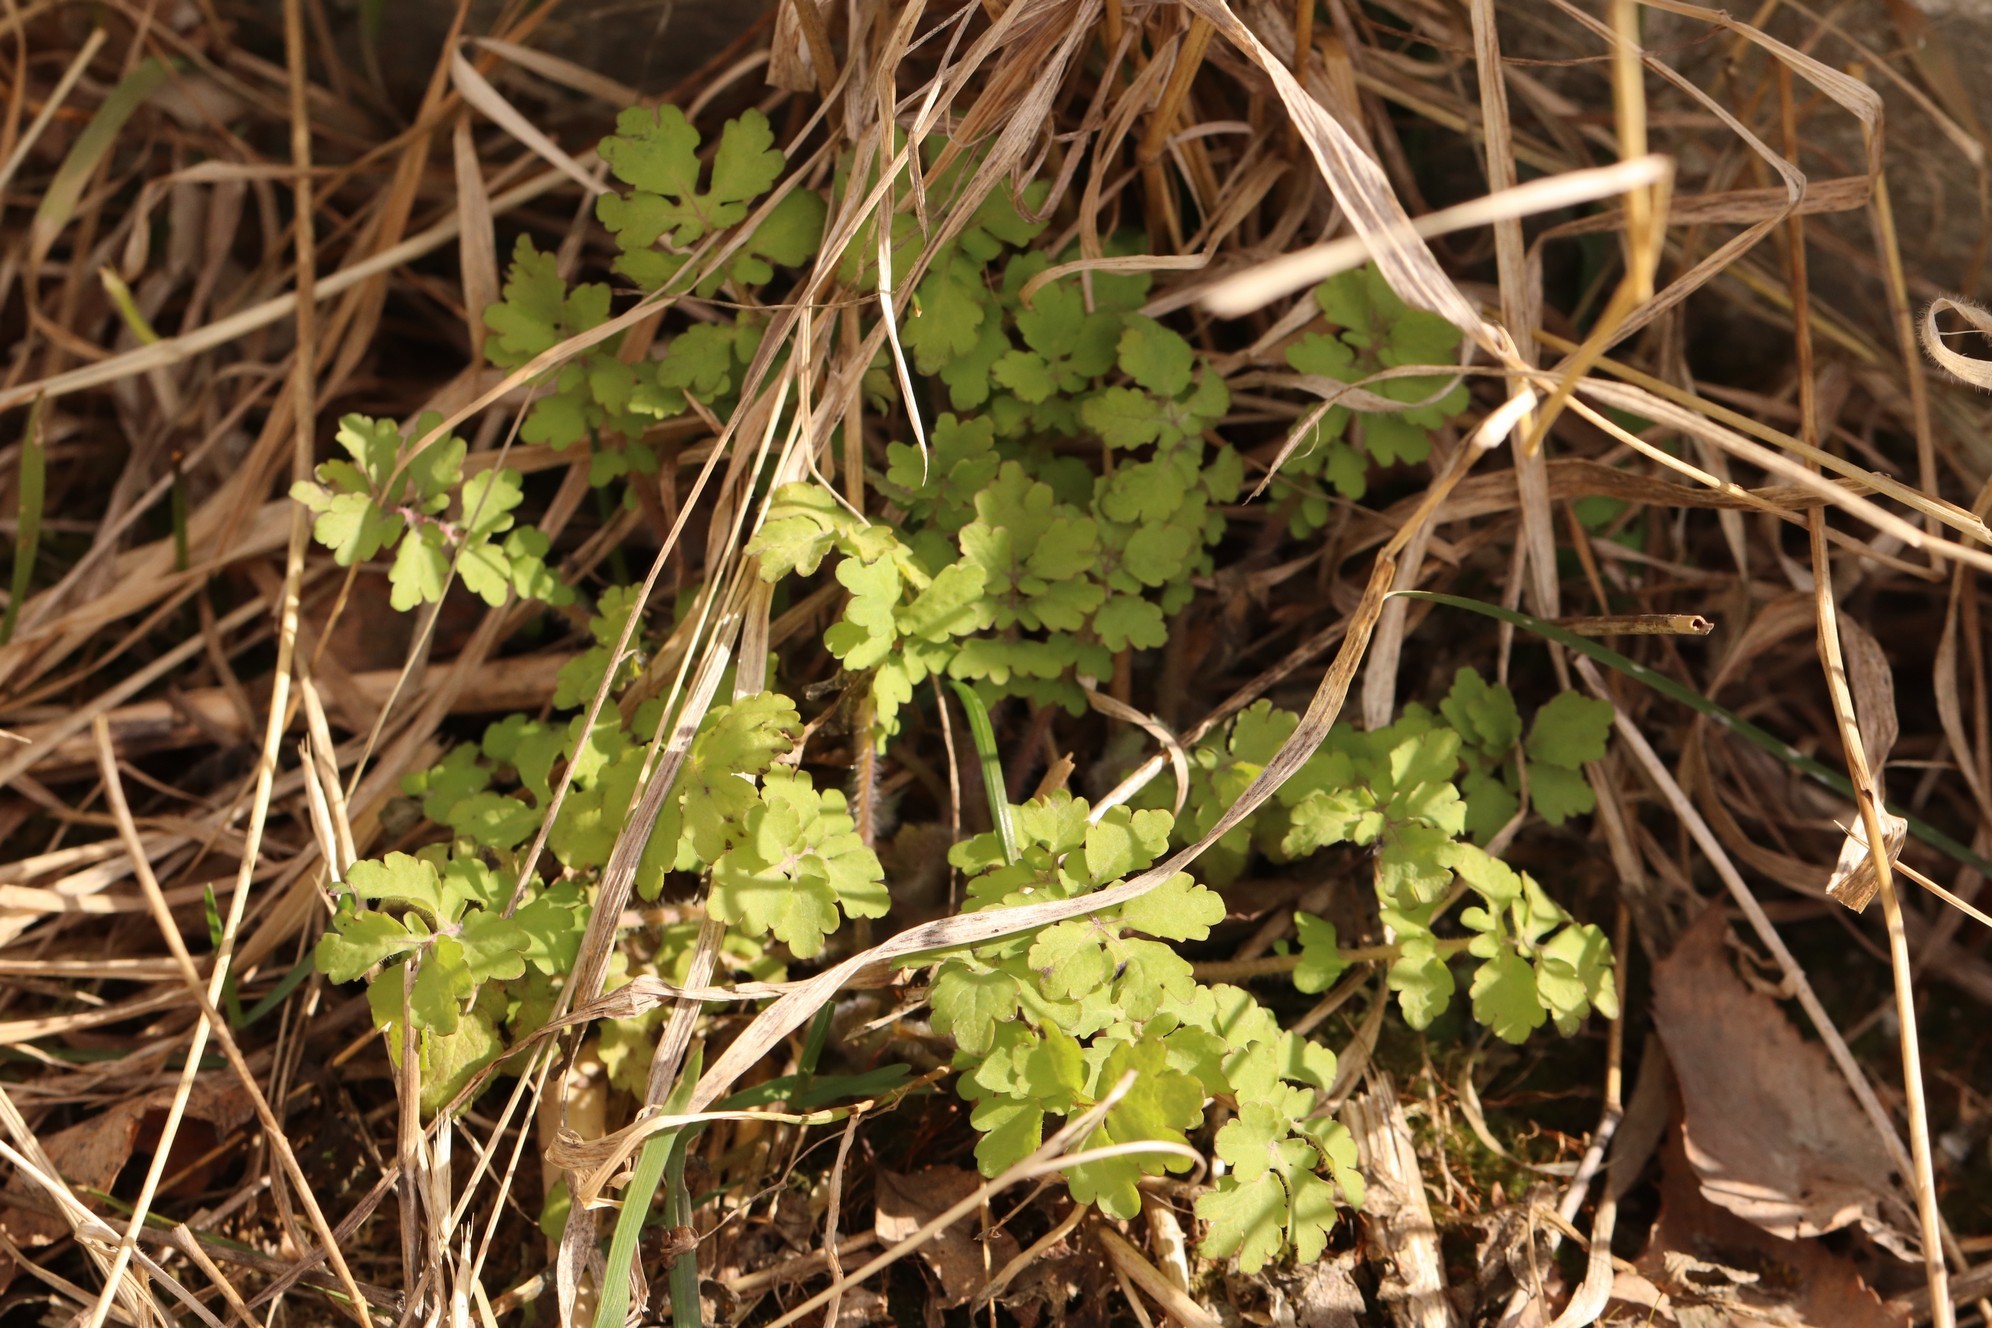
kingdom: Plantae
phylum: Tracheophyta
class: Magnoliopsida
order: Ranunculales
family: Papaveraceae
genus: Chelidonium
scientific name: Chelidonium majus
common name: Greater celandine
